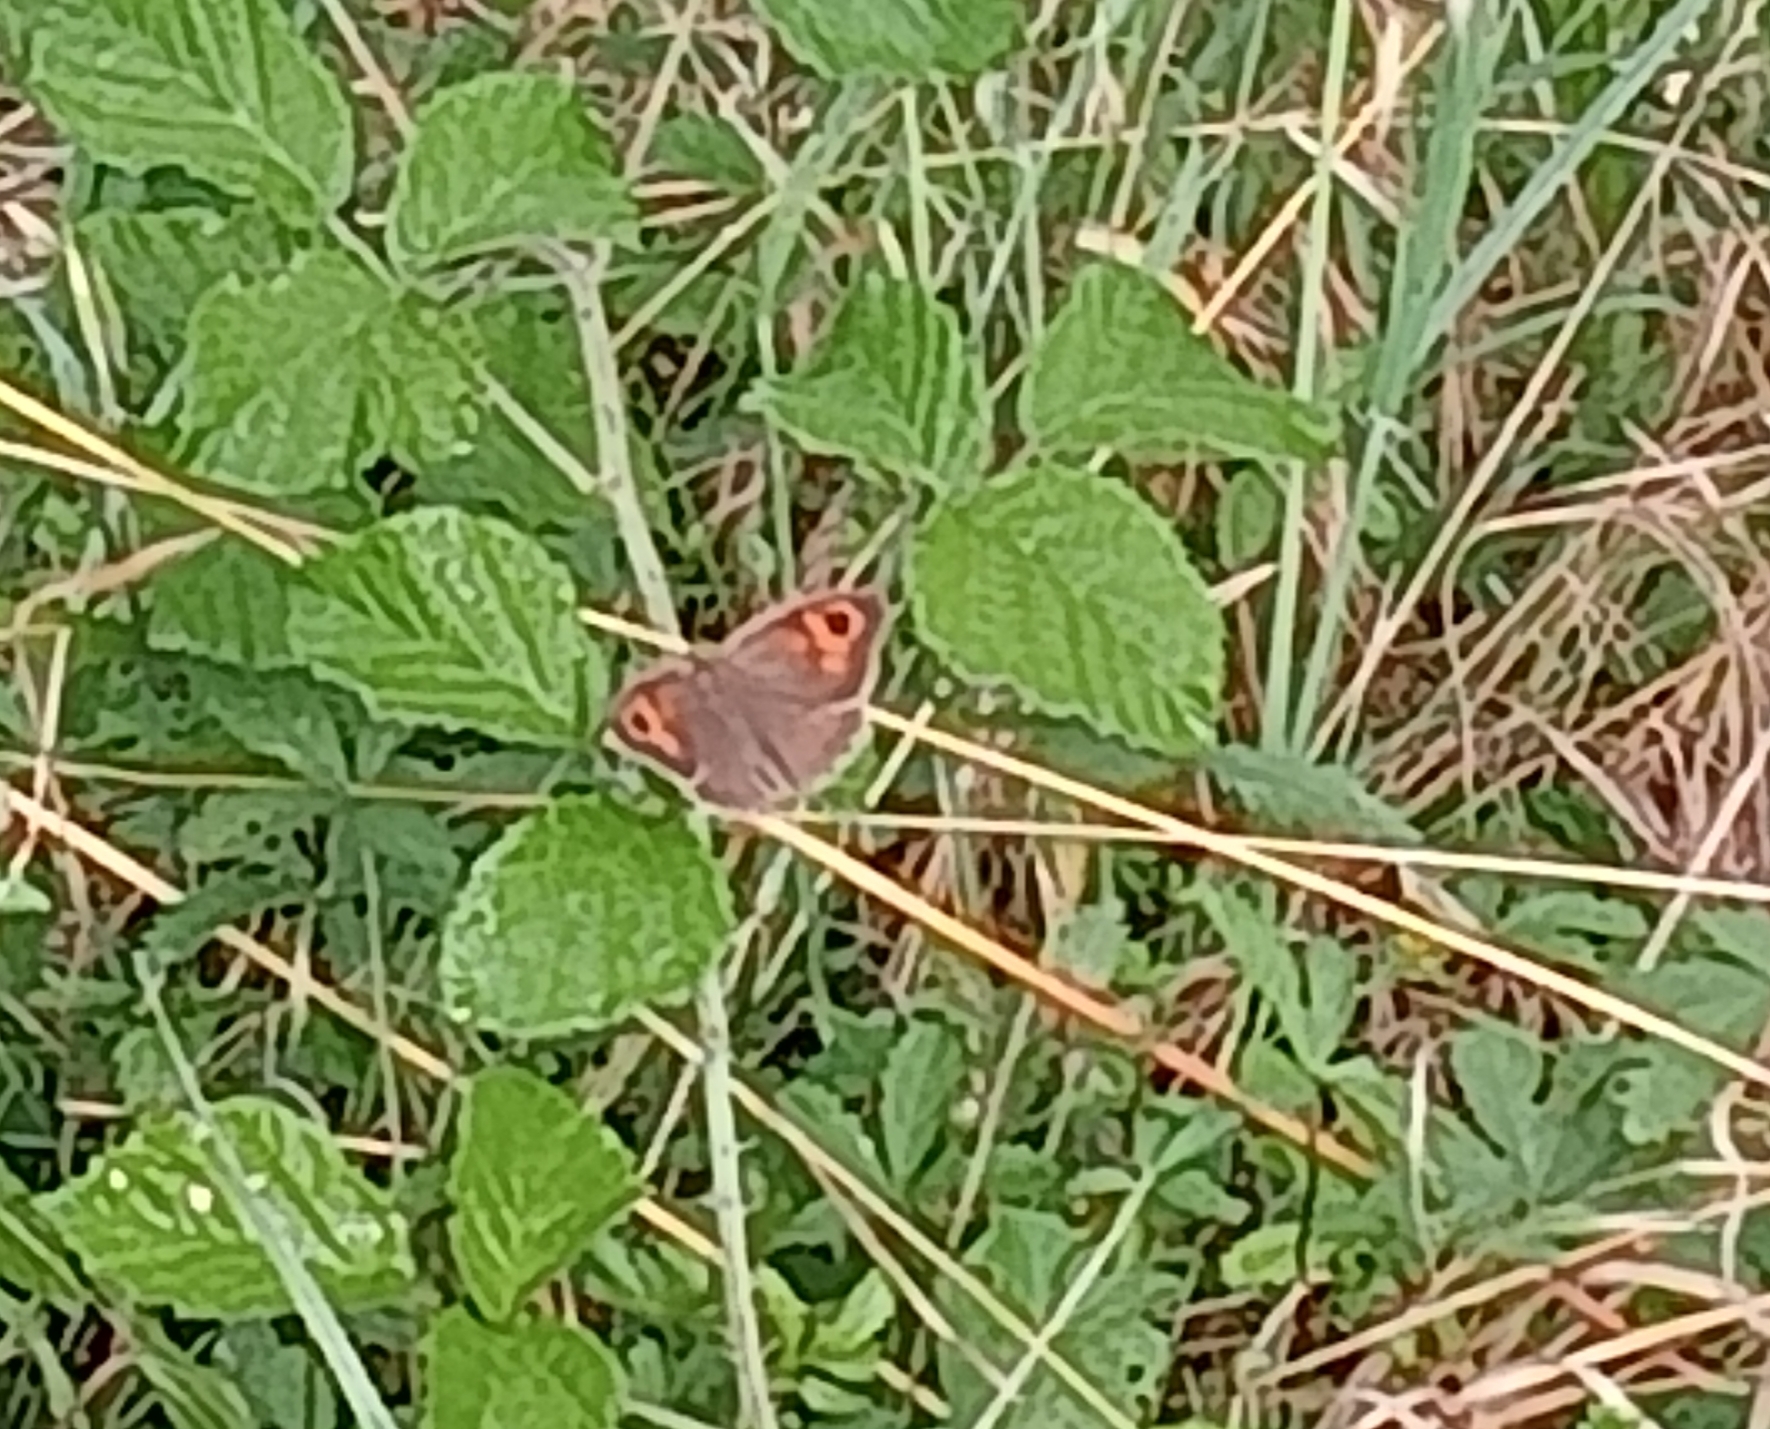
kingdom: Animalia
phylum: Arthropoda
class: Insecta
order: Lepidoptera
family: Nymphalidae
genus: Maniola
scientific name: Maniola jurtina
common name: Meadow brown
